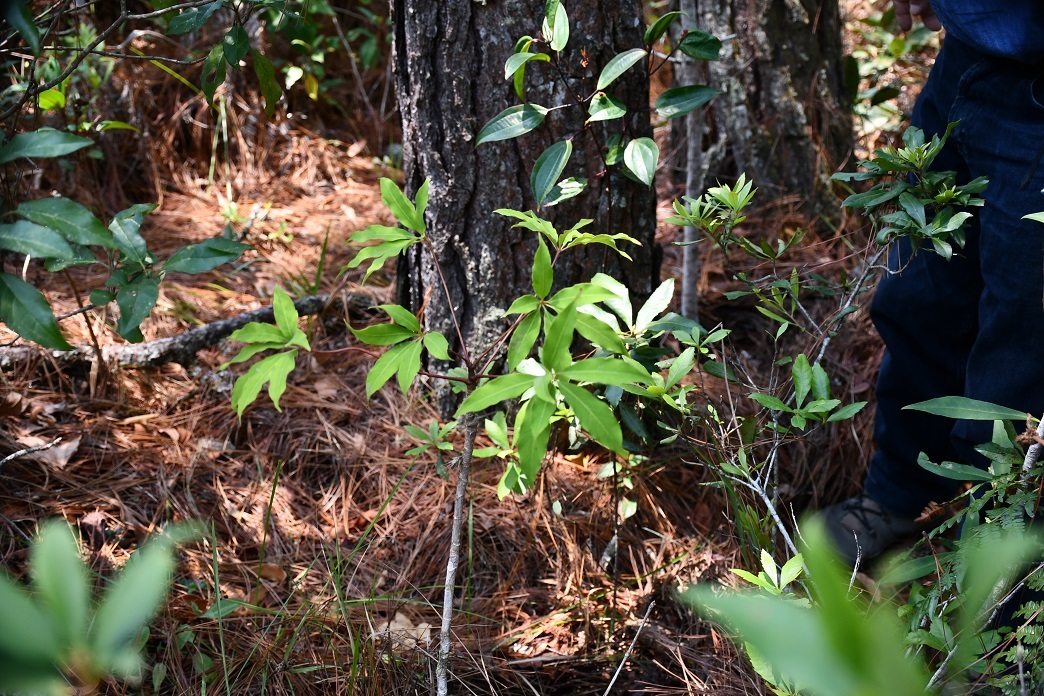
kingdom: Plantae
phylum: Tracheophyta
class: Magnoliopsida
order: Apiales
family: Araliaceae
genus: Oreopanax
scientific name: Oreopanax xalapensis
